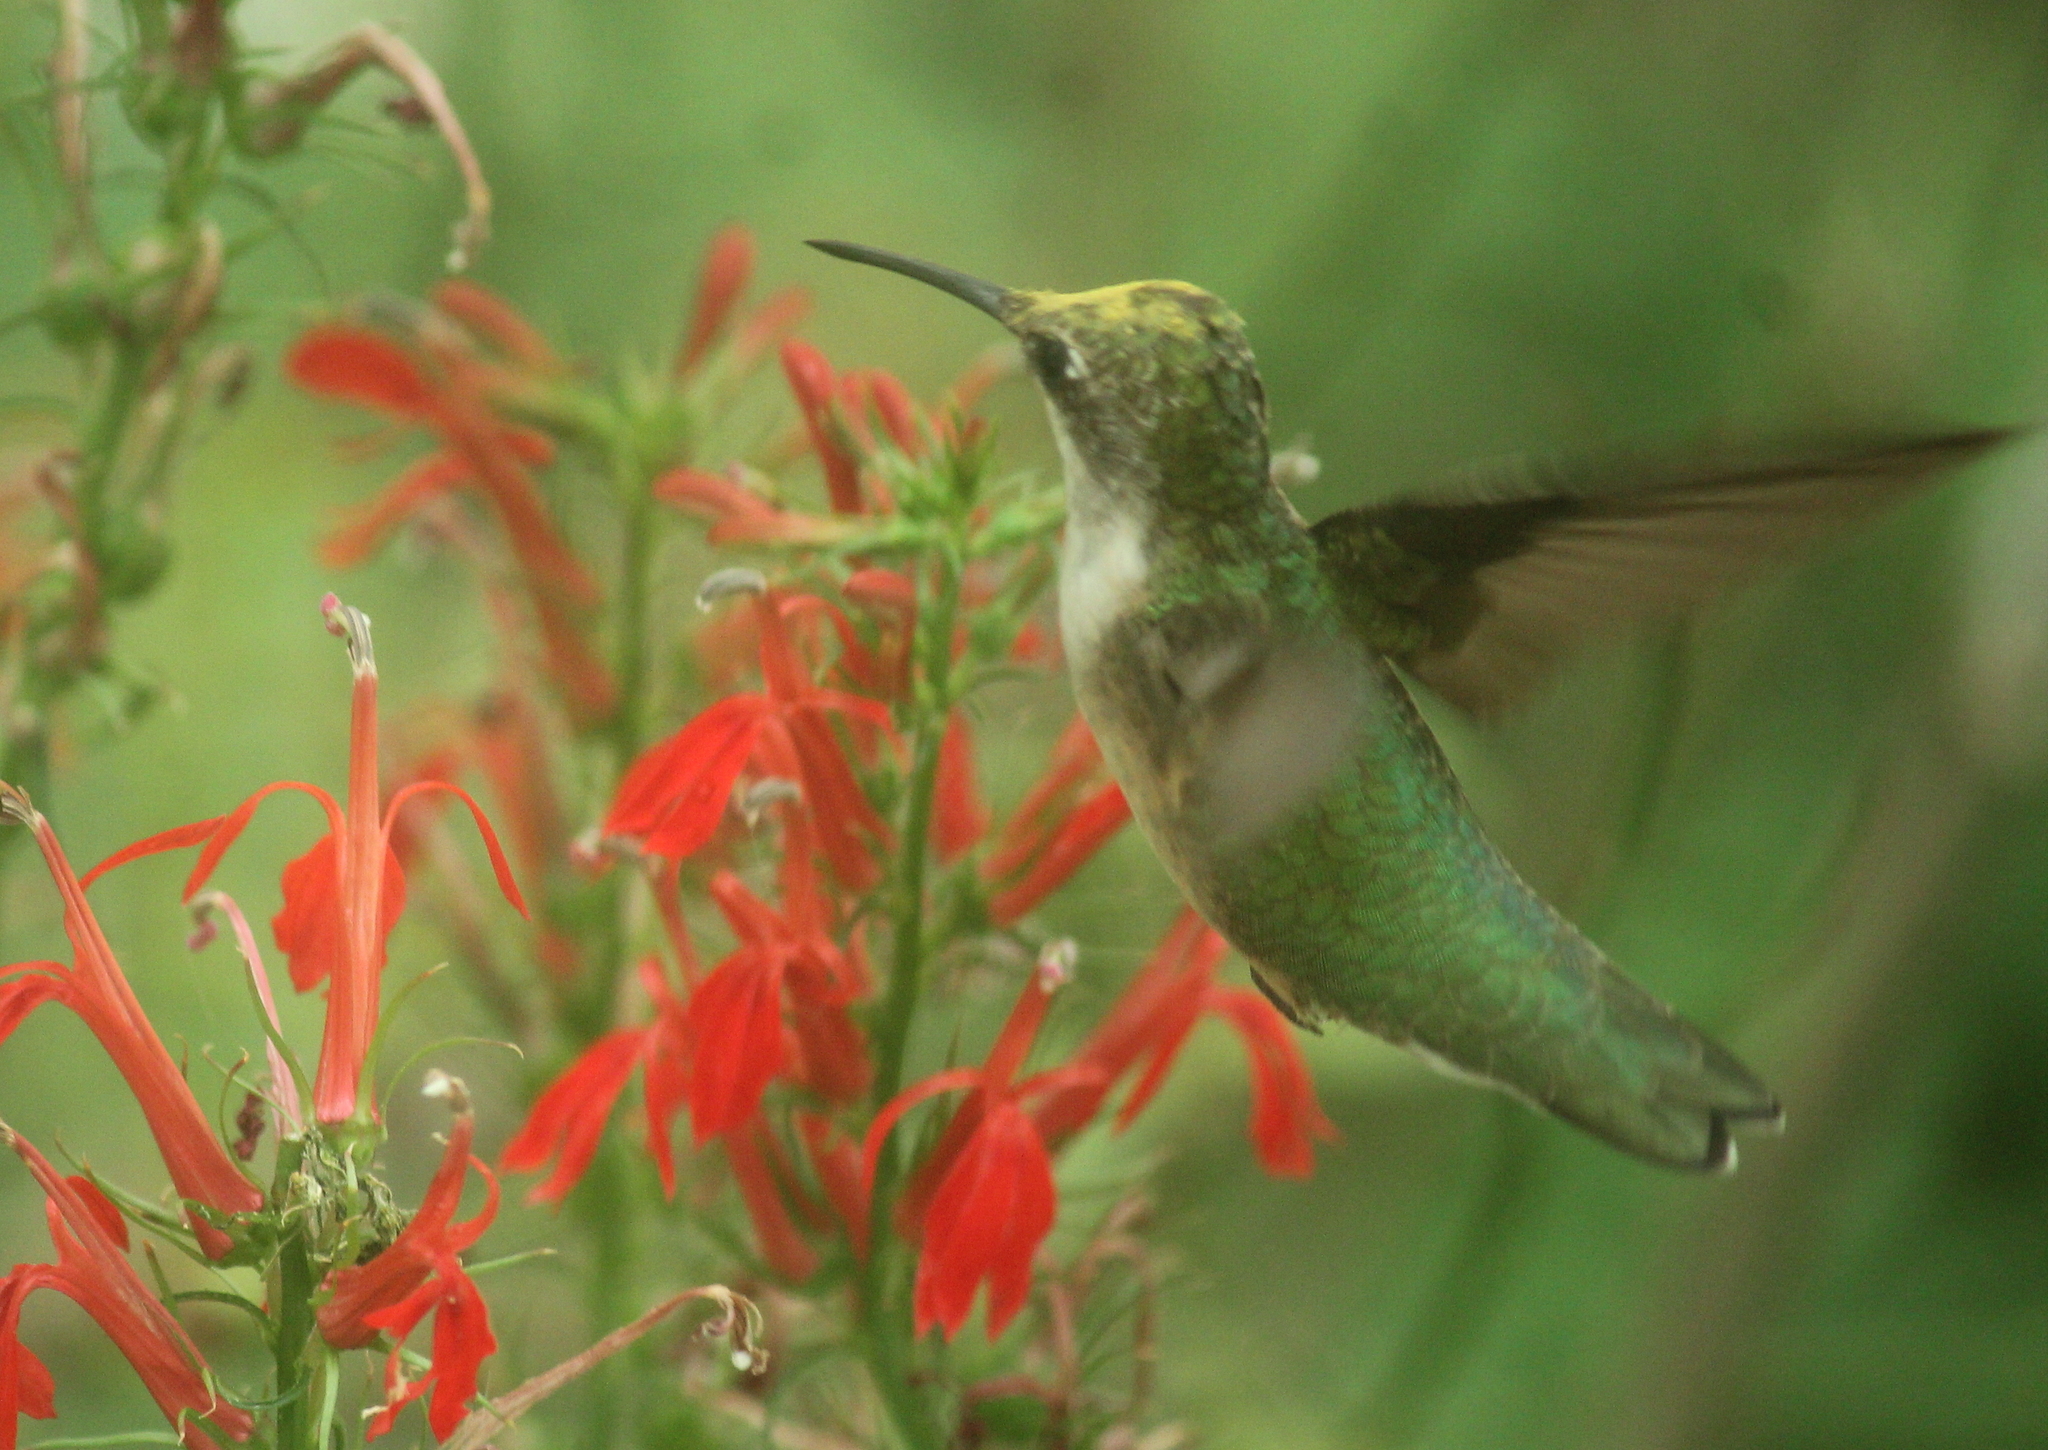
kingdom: Animalia
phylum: Chordata
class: Aves
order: Apodiformes
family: Trochilidae
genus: Archilochus
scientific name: Archilochus colubris
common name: Ruby-throated hummingbird
